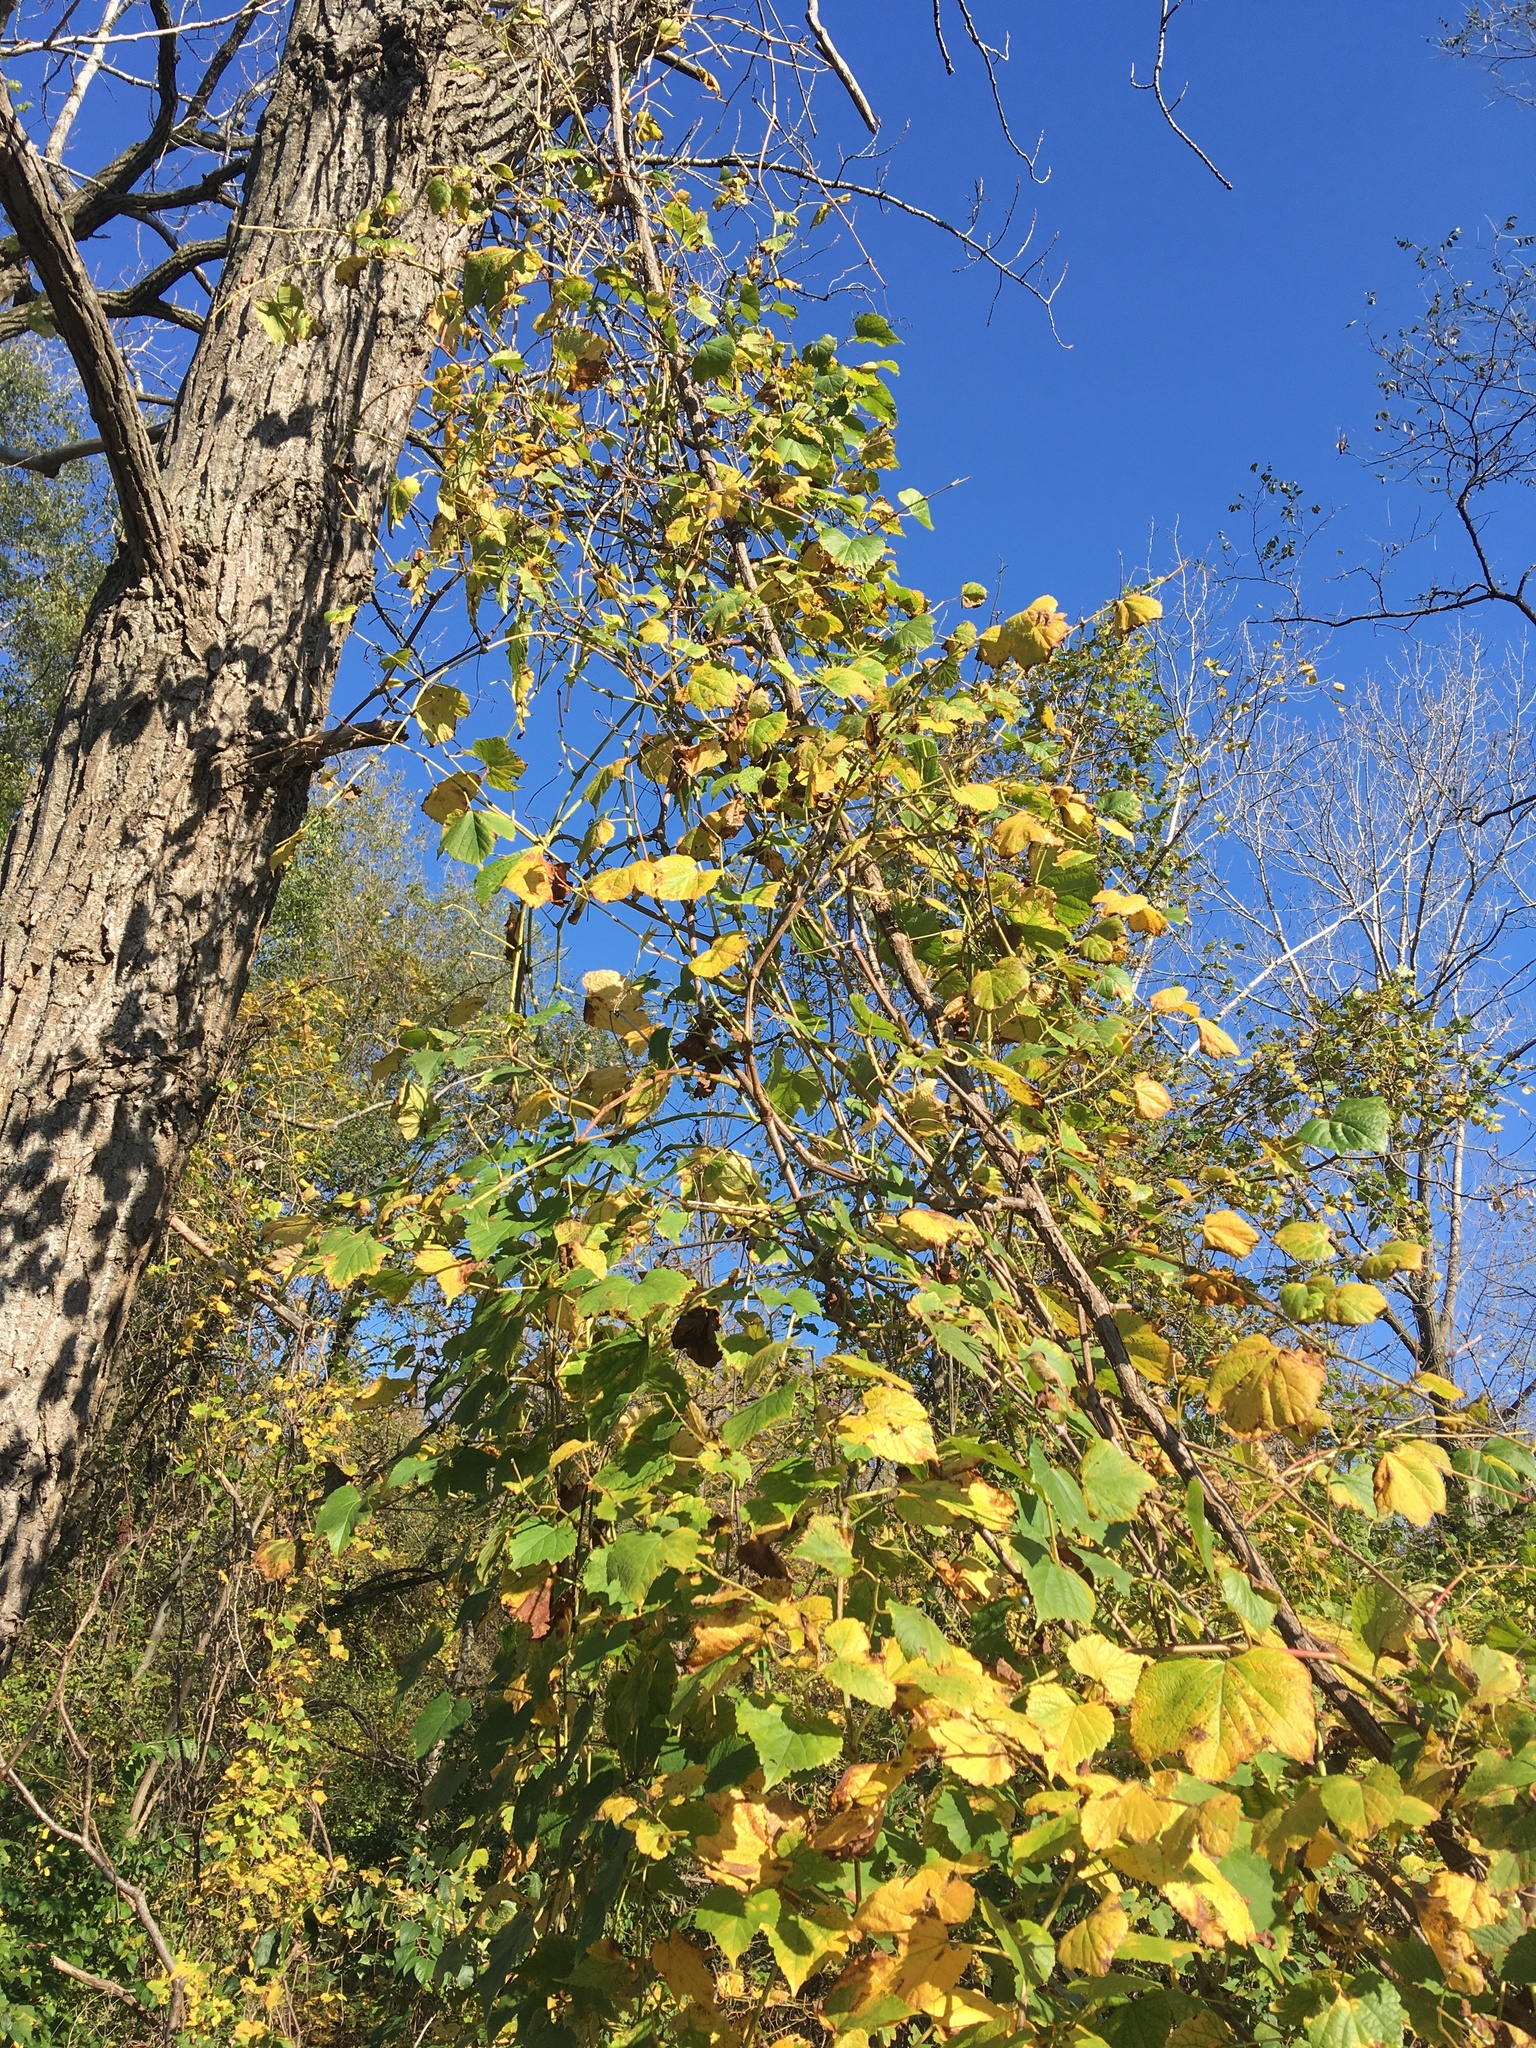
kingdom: Plantae
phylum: Tracheophyta
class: Magnoliopsida
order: Vitales
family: Vitaceae
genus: Ampelopsis
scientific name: Ampelopsis glandulosa
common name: Amur peppervine
